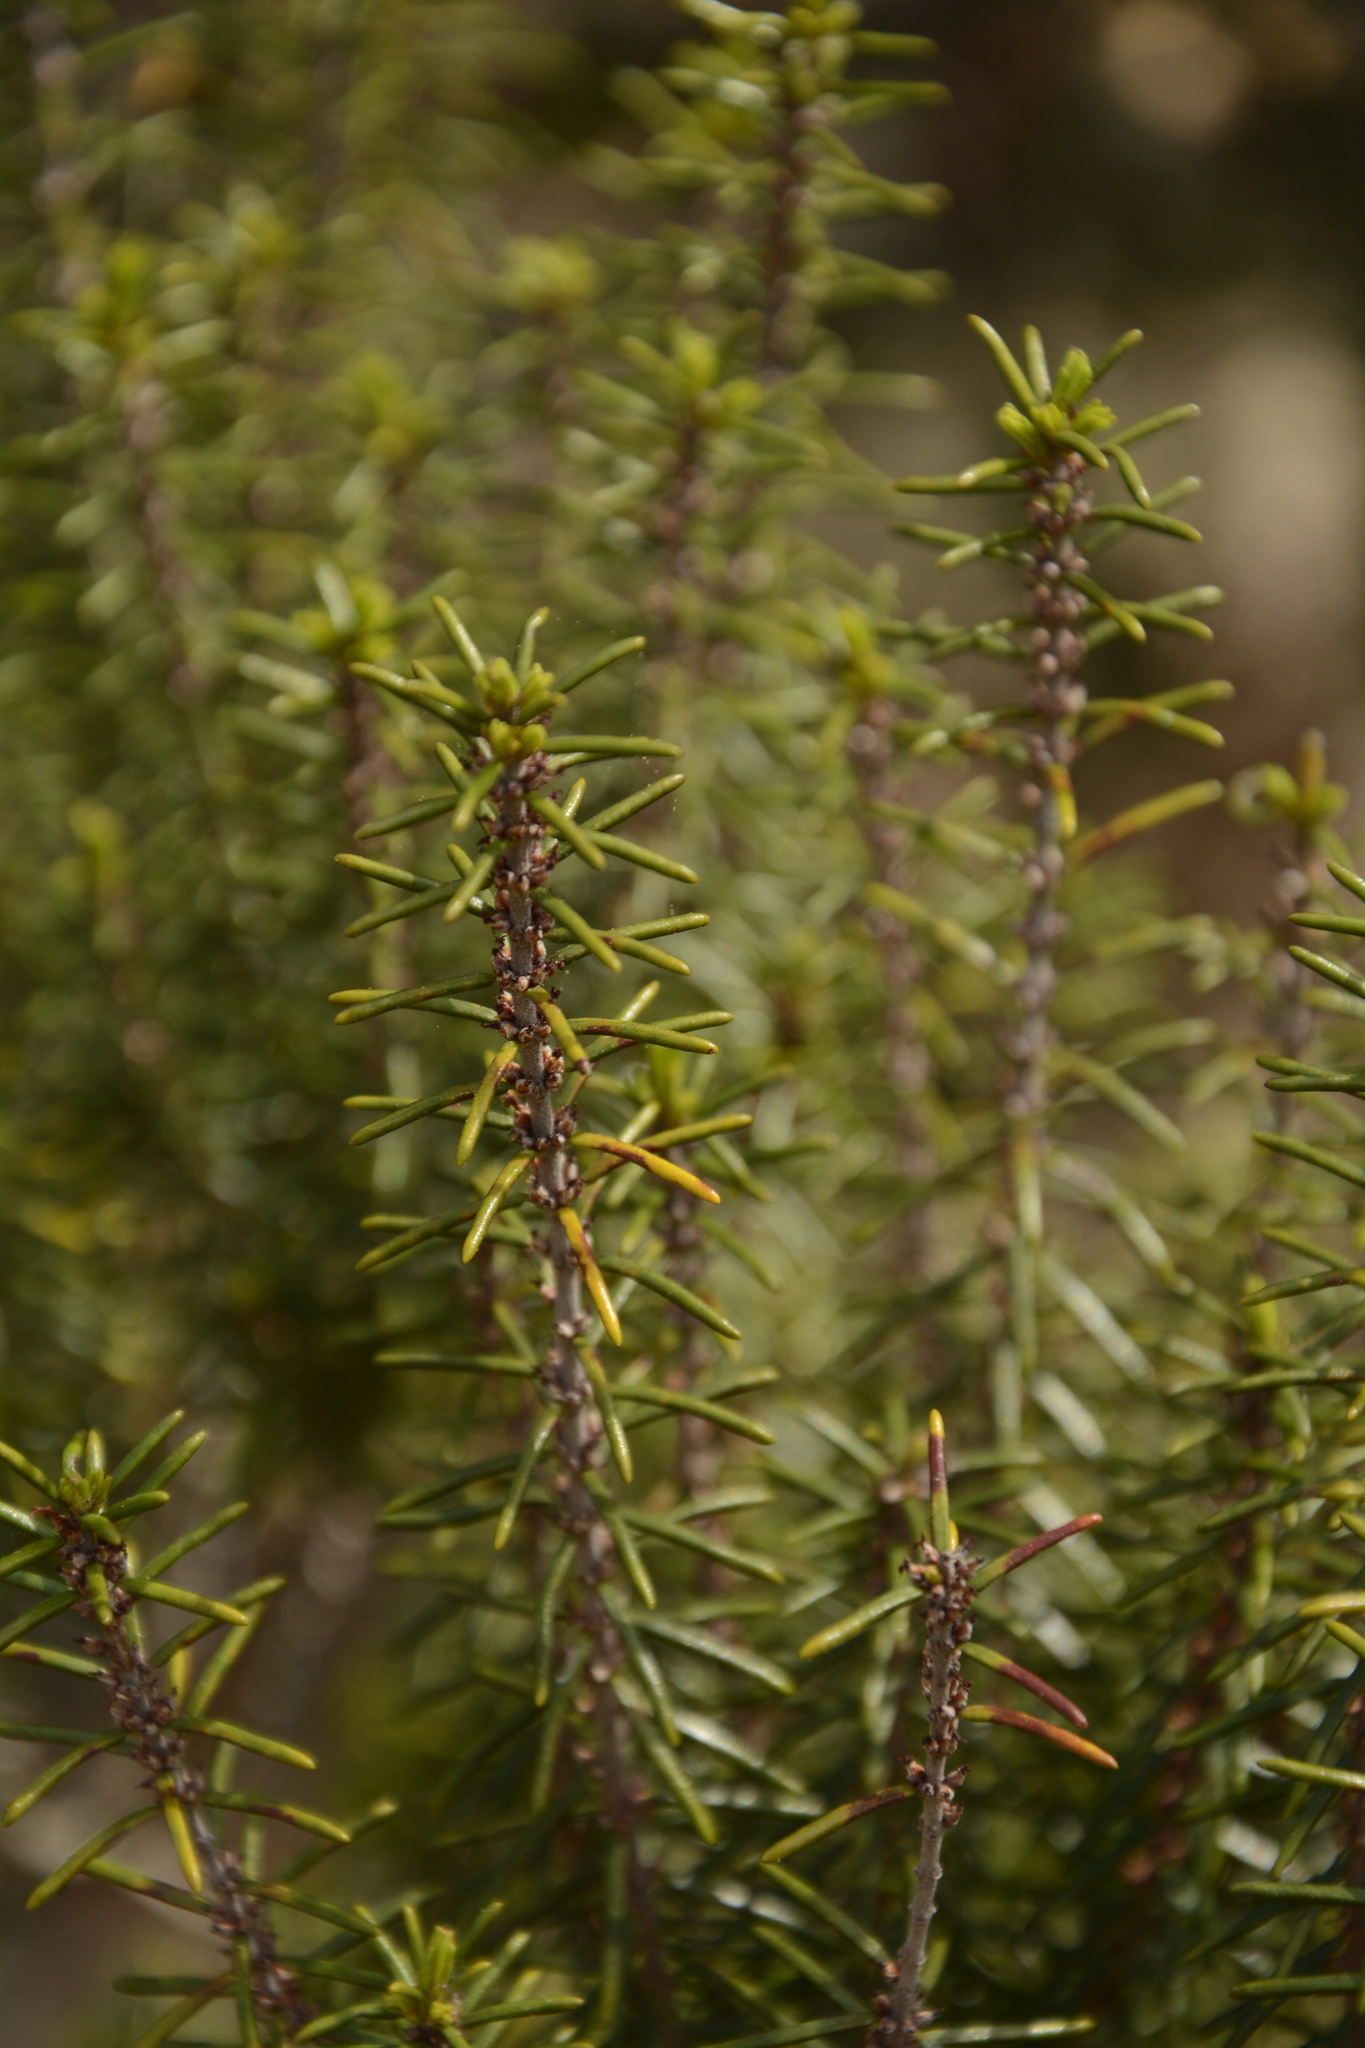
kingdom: Plantae
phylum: Tracheophyta
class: Magnoliopsida
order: Ericales
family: Ericaceae
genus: Ceratiola
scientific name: Ceratiola ericoides
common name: Sandhill-rosemary
